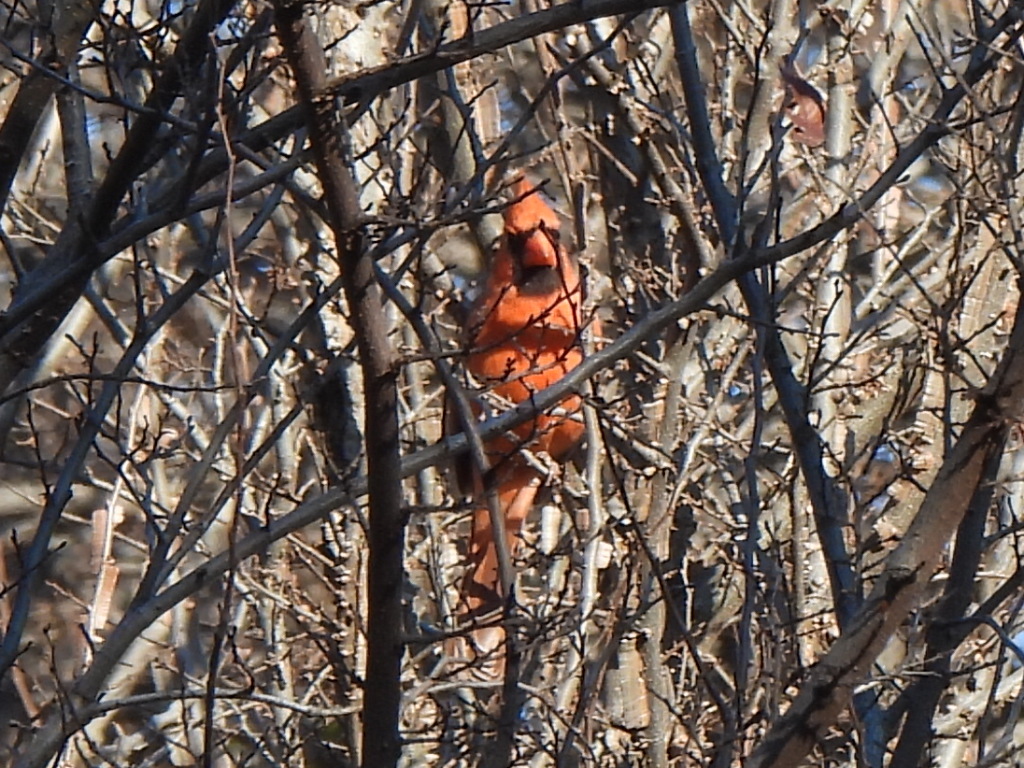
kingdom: Animalia
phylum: Chordata
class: Aves
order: Passeriformes
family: Cardinalidae
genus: Cardinalis
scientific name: Cardinalis cardinalis
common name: Northern cardinal
